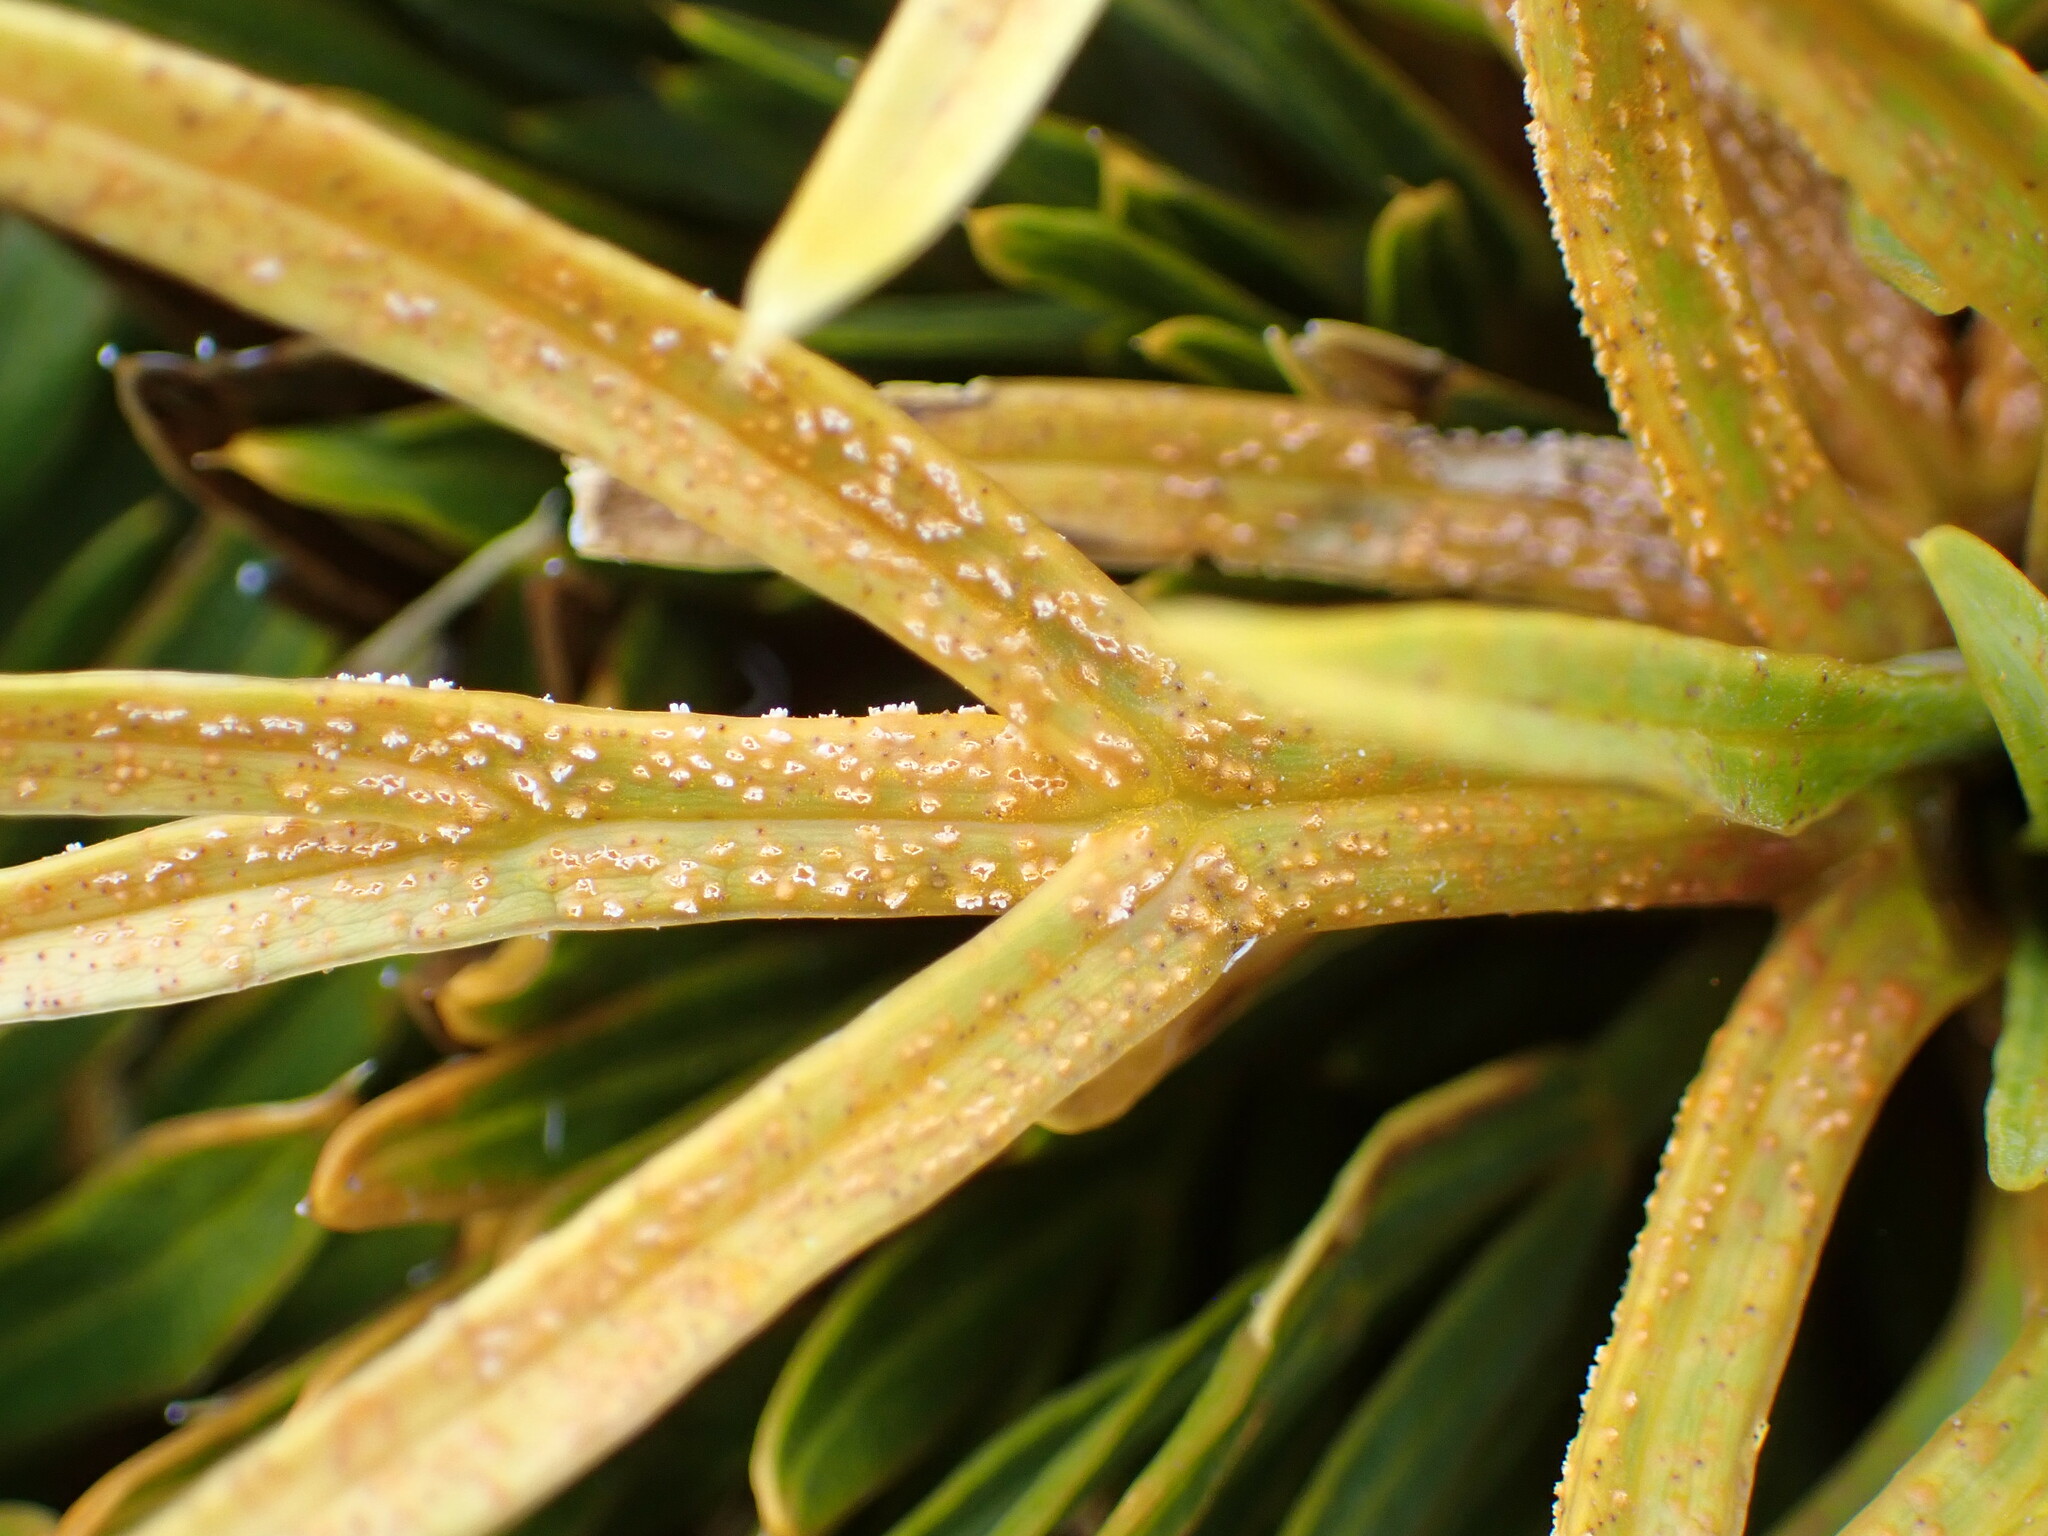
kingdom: Fungi
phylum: Basidiomycota
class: Pucciniomycetes
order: Pucciniales
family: Pucciniaceae
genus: Puccinia
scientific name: Puccinia grahamii
